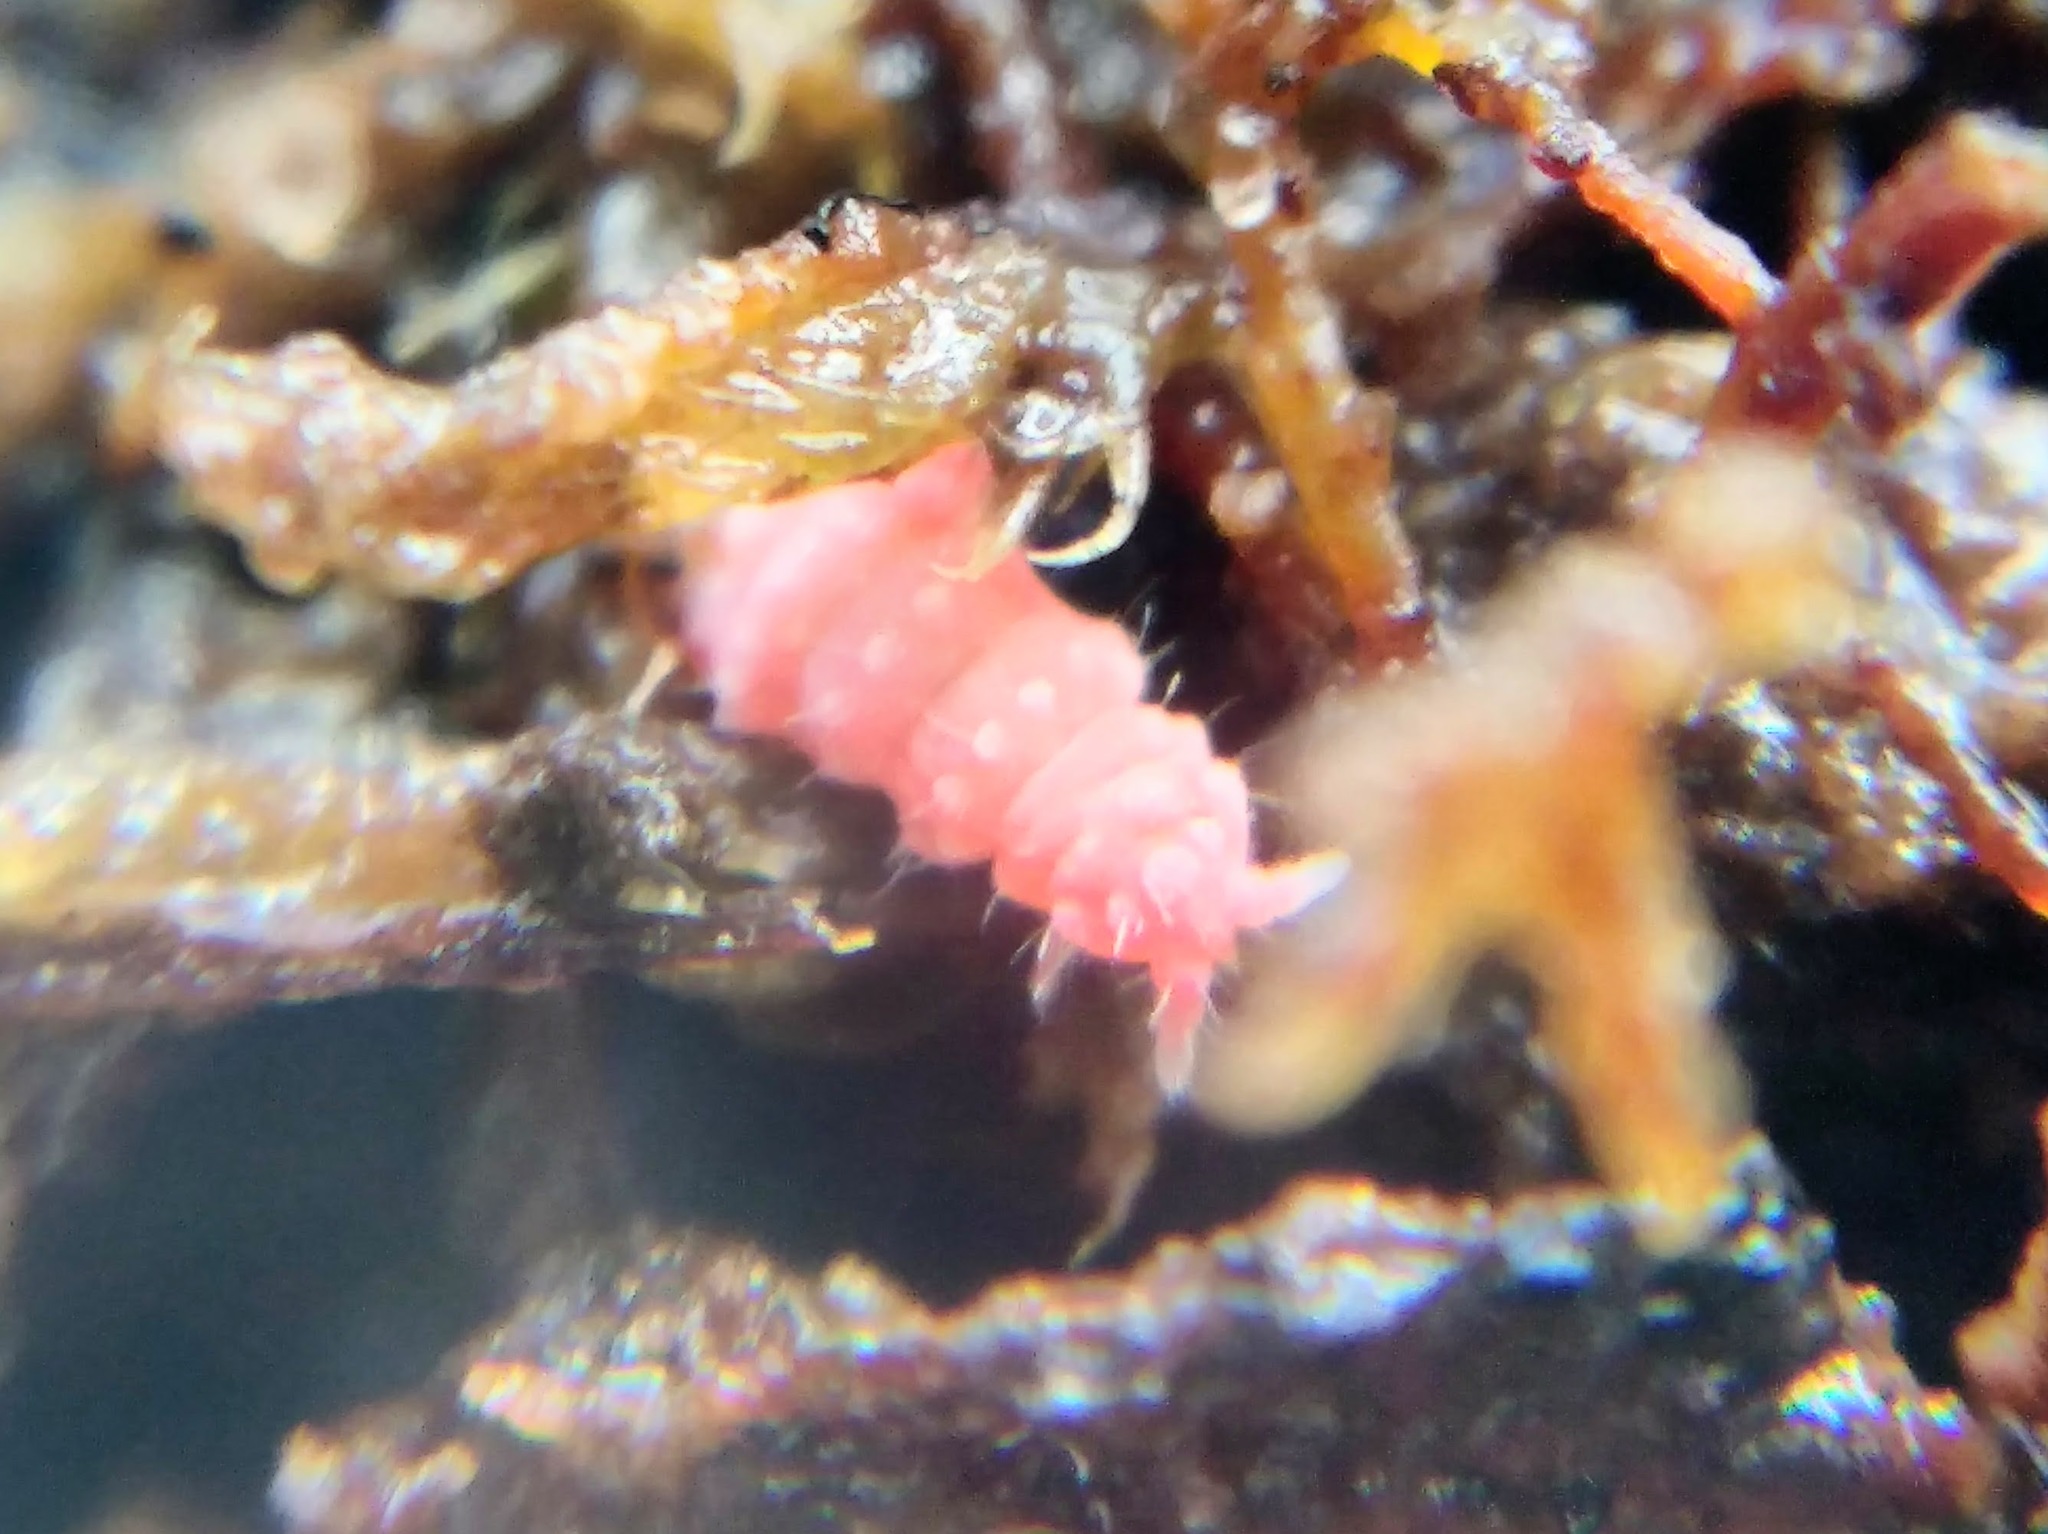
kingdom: Animalia
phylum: Arthropoda
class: Collembola
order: Poduromorpha
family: Neanuridae
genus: Bilobella
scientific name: Bilobella braunerae
